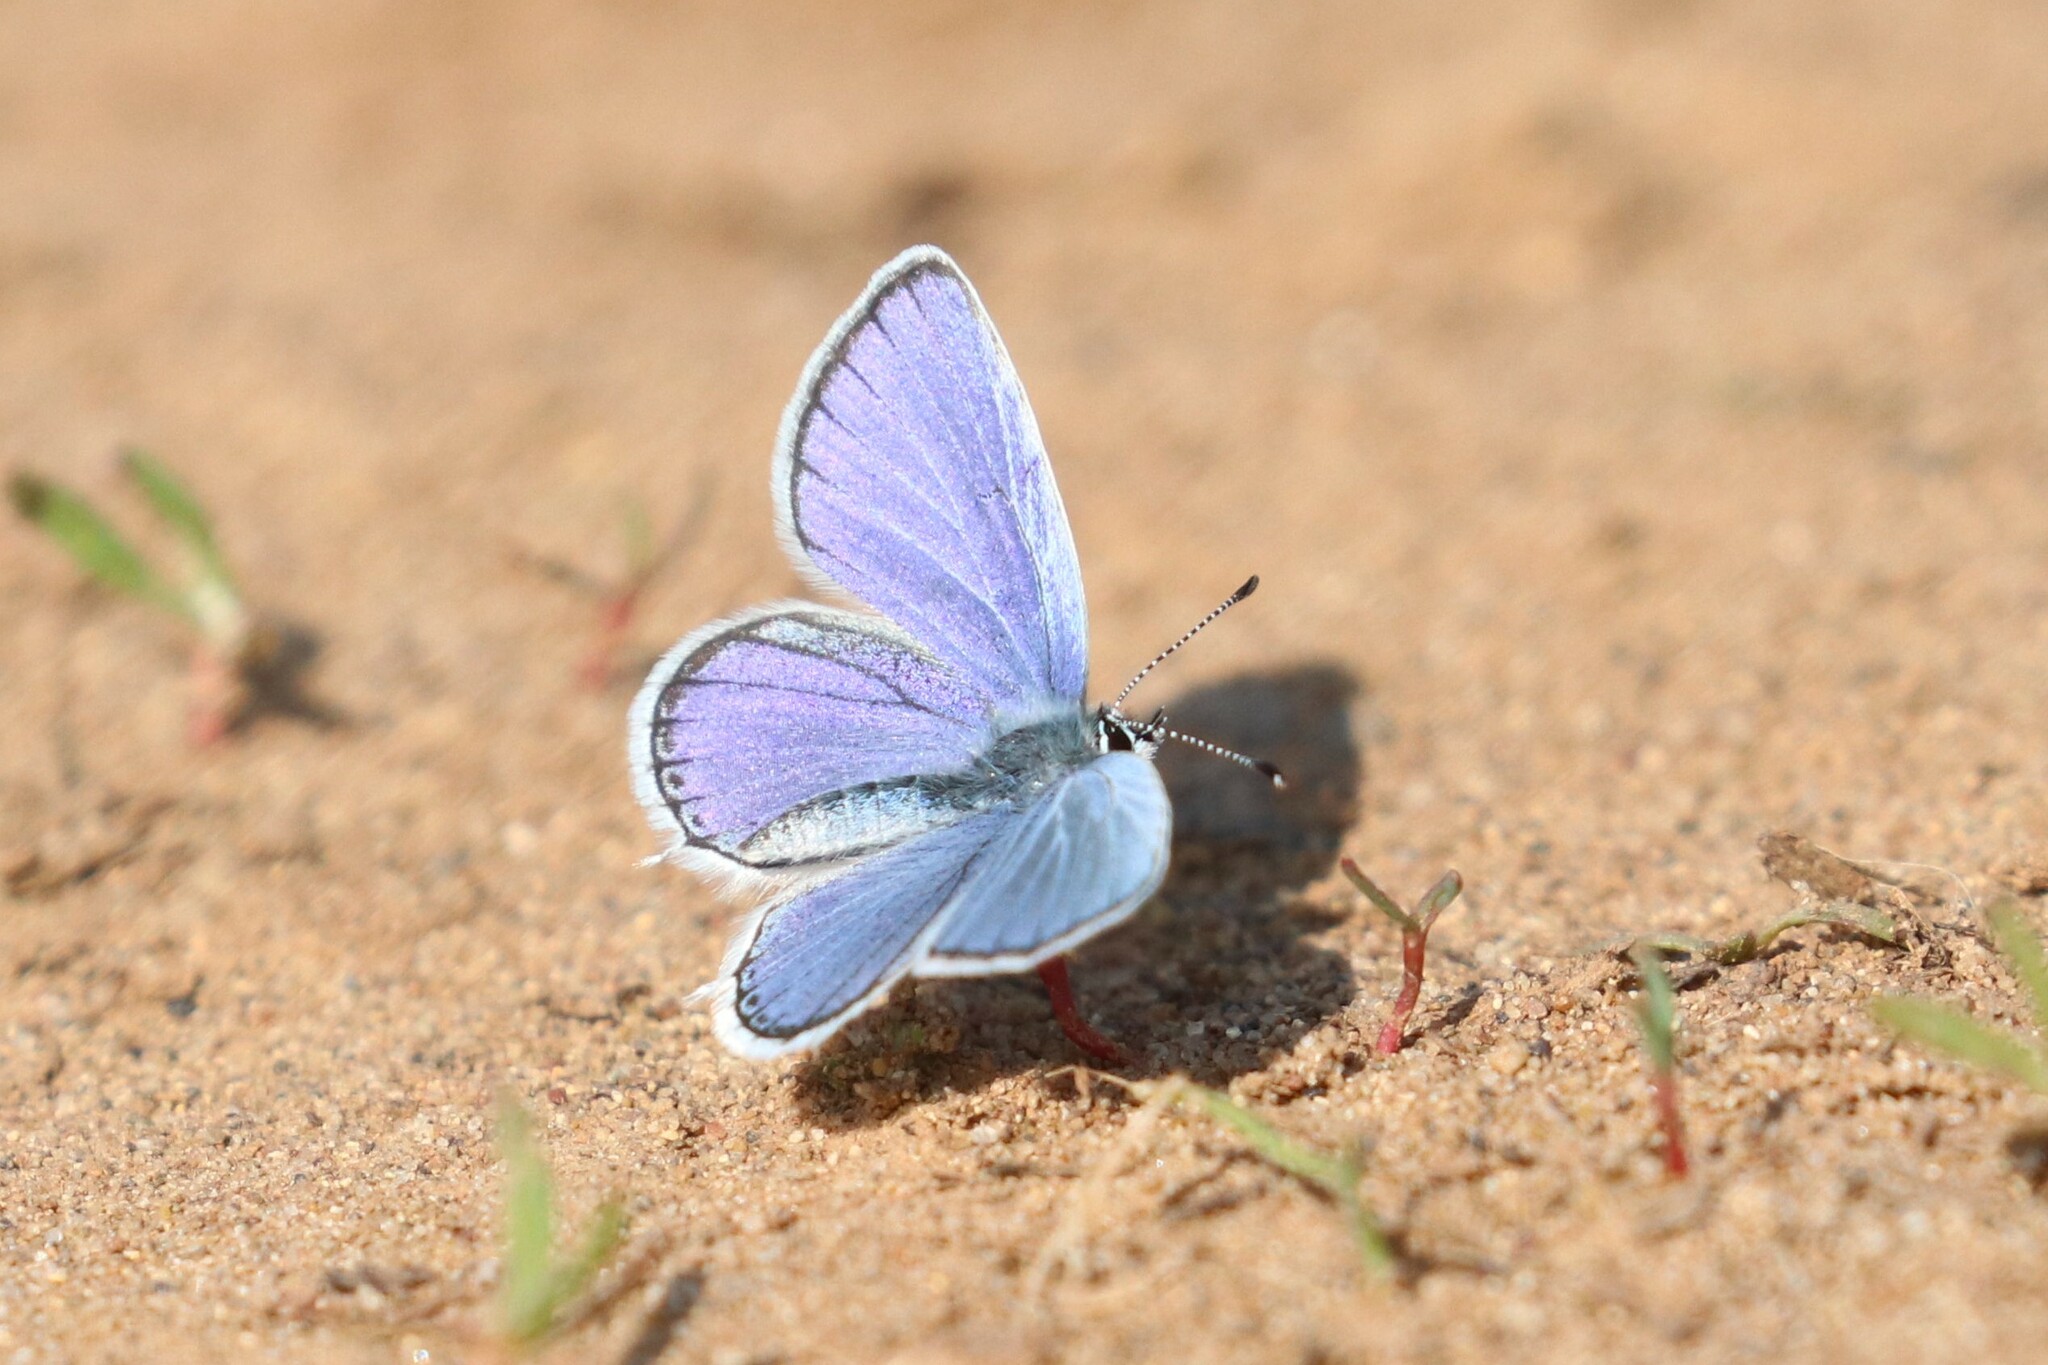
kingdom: Animalia
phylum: Arthropoda
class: Insecta
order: Lepidoptera
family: Lycaenidae
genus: Elkalyce
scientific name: Elkalyce argiades
